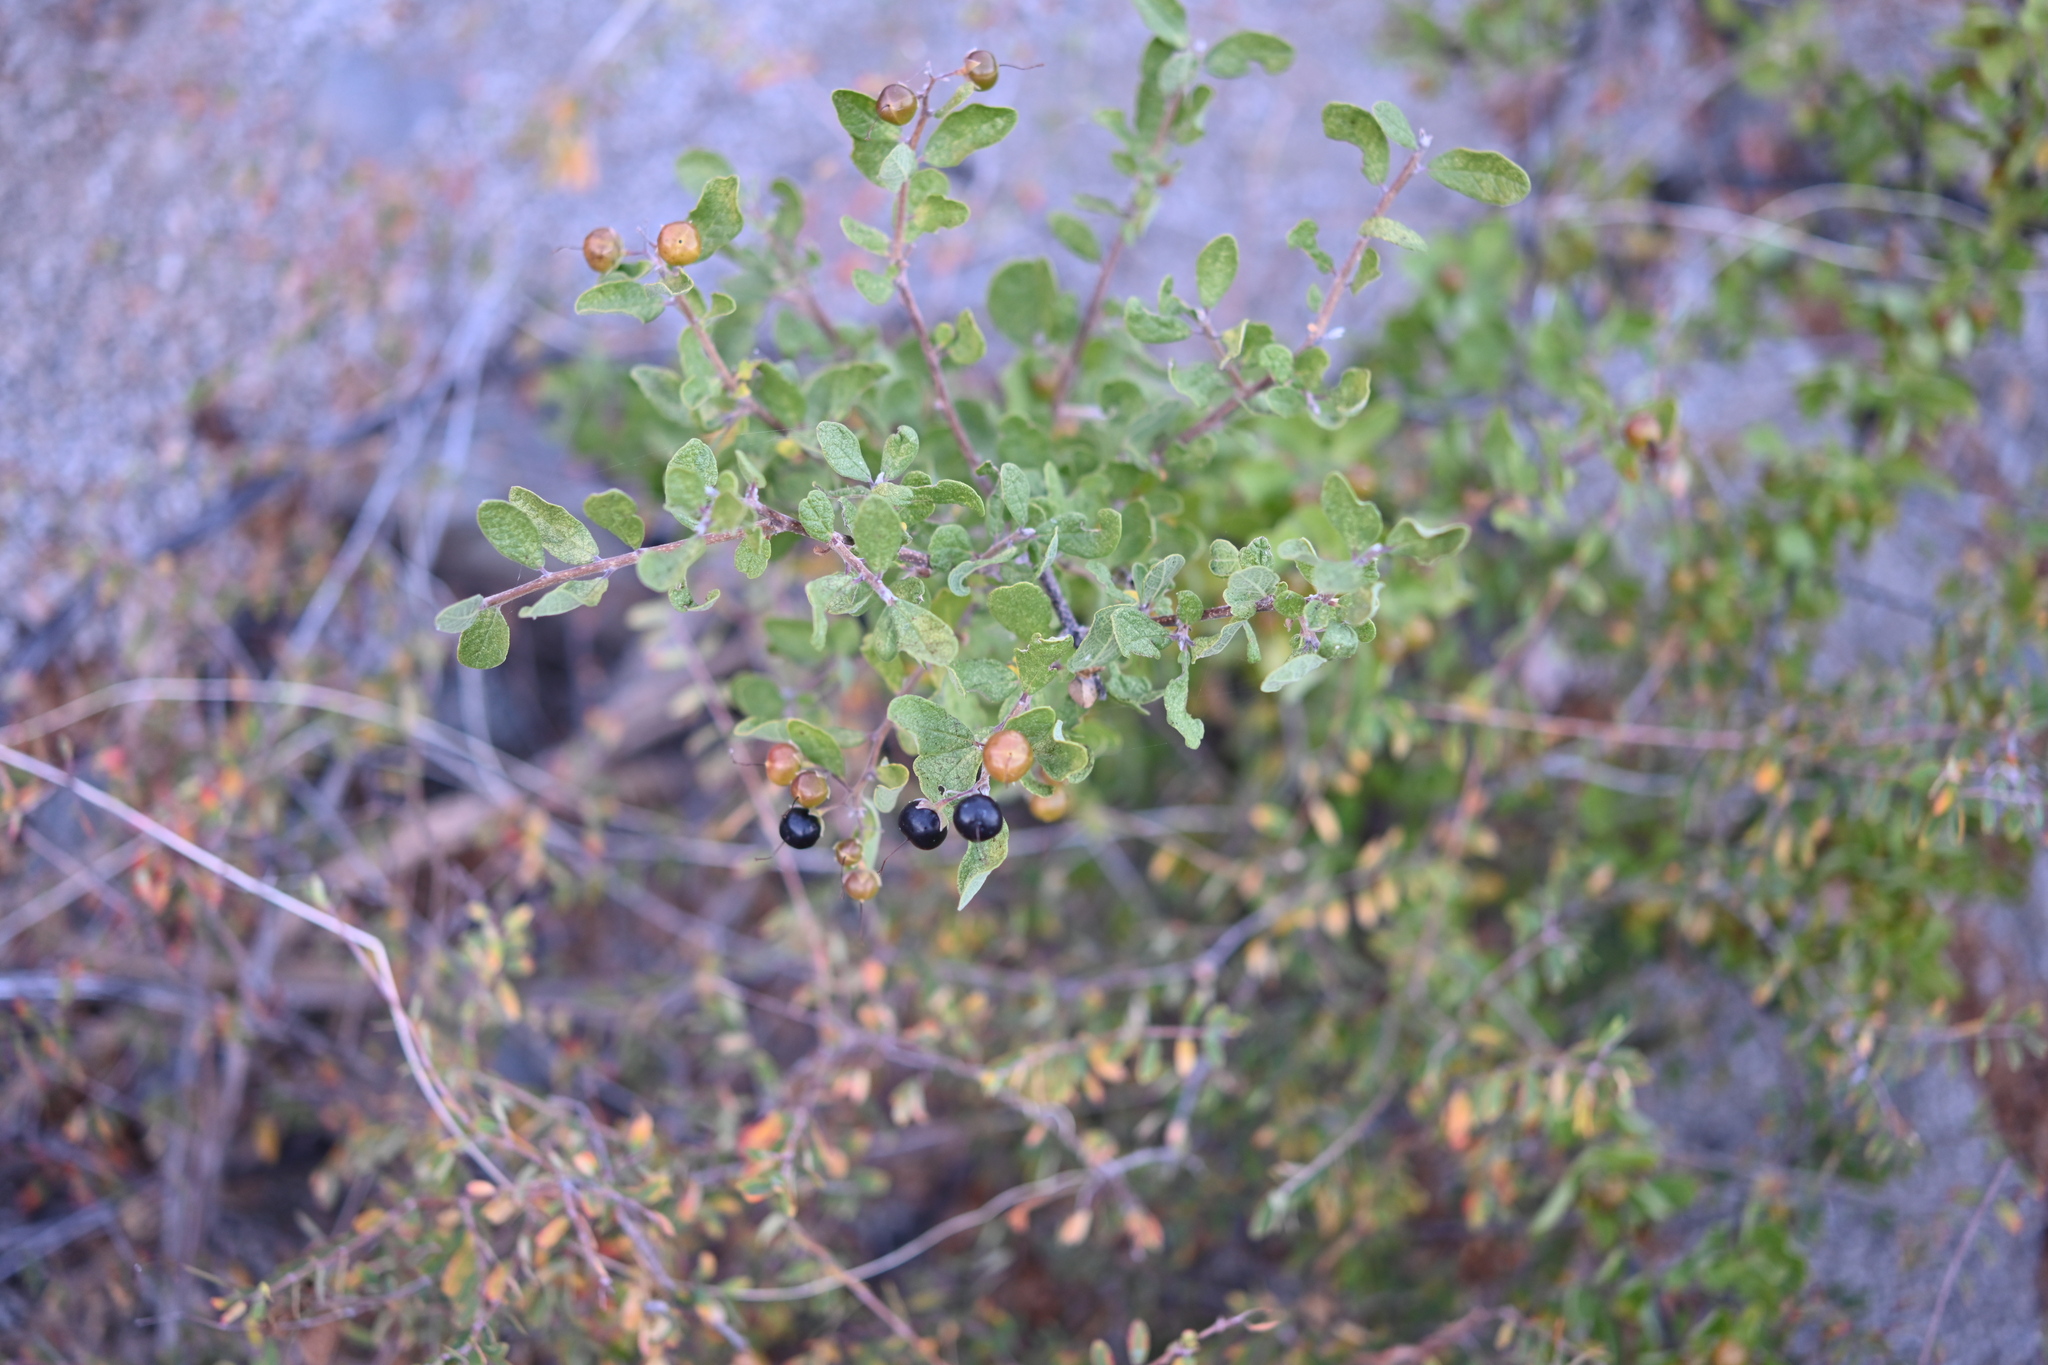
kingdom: Plantae
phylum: Tracheophyta
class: Magnoliopsida
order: Boraginales
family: Ehretiaceae
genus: Bourreria
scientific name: Bourreria sonorae
